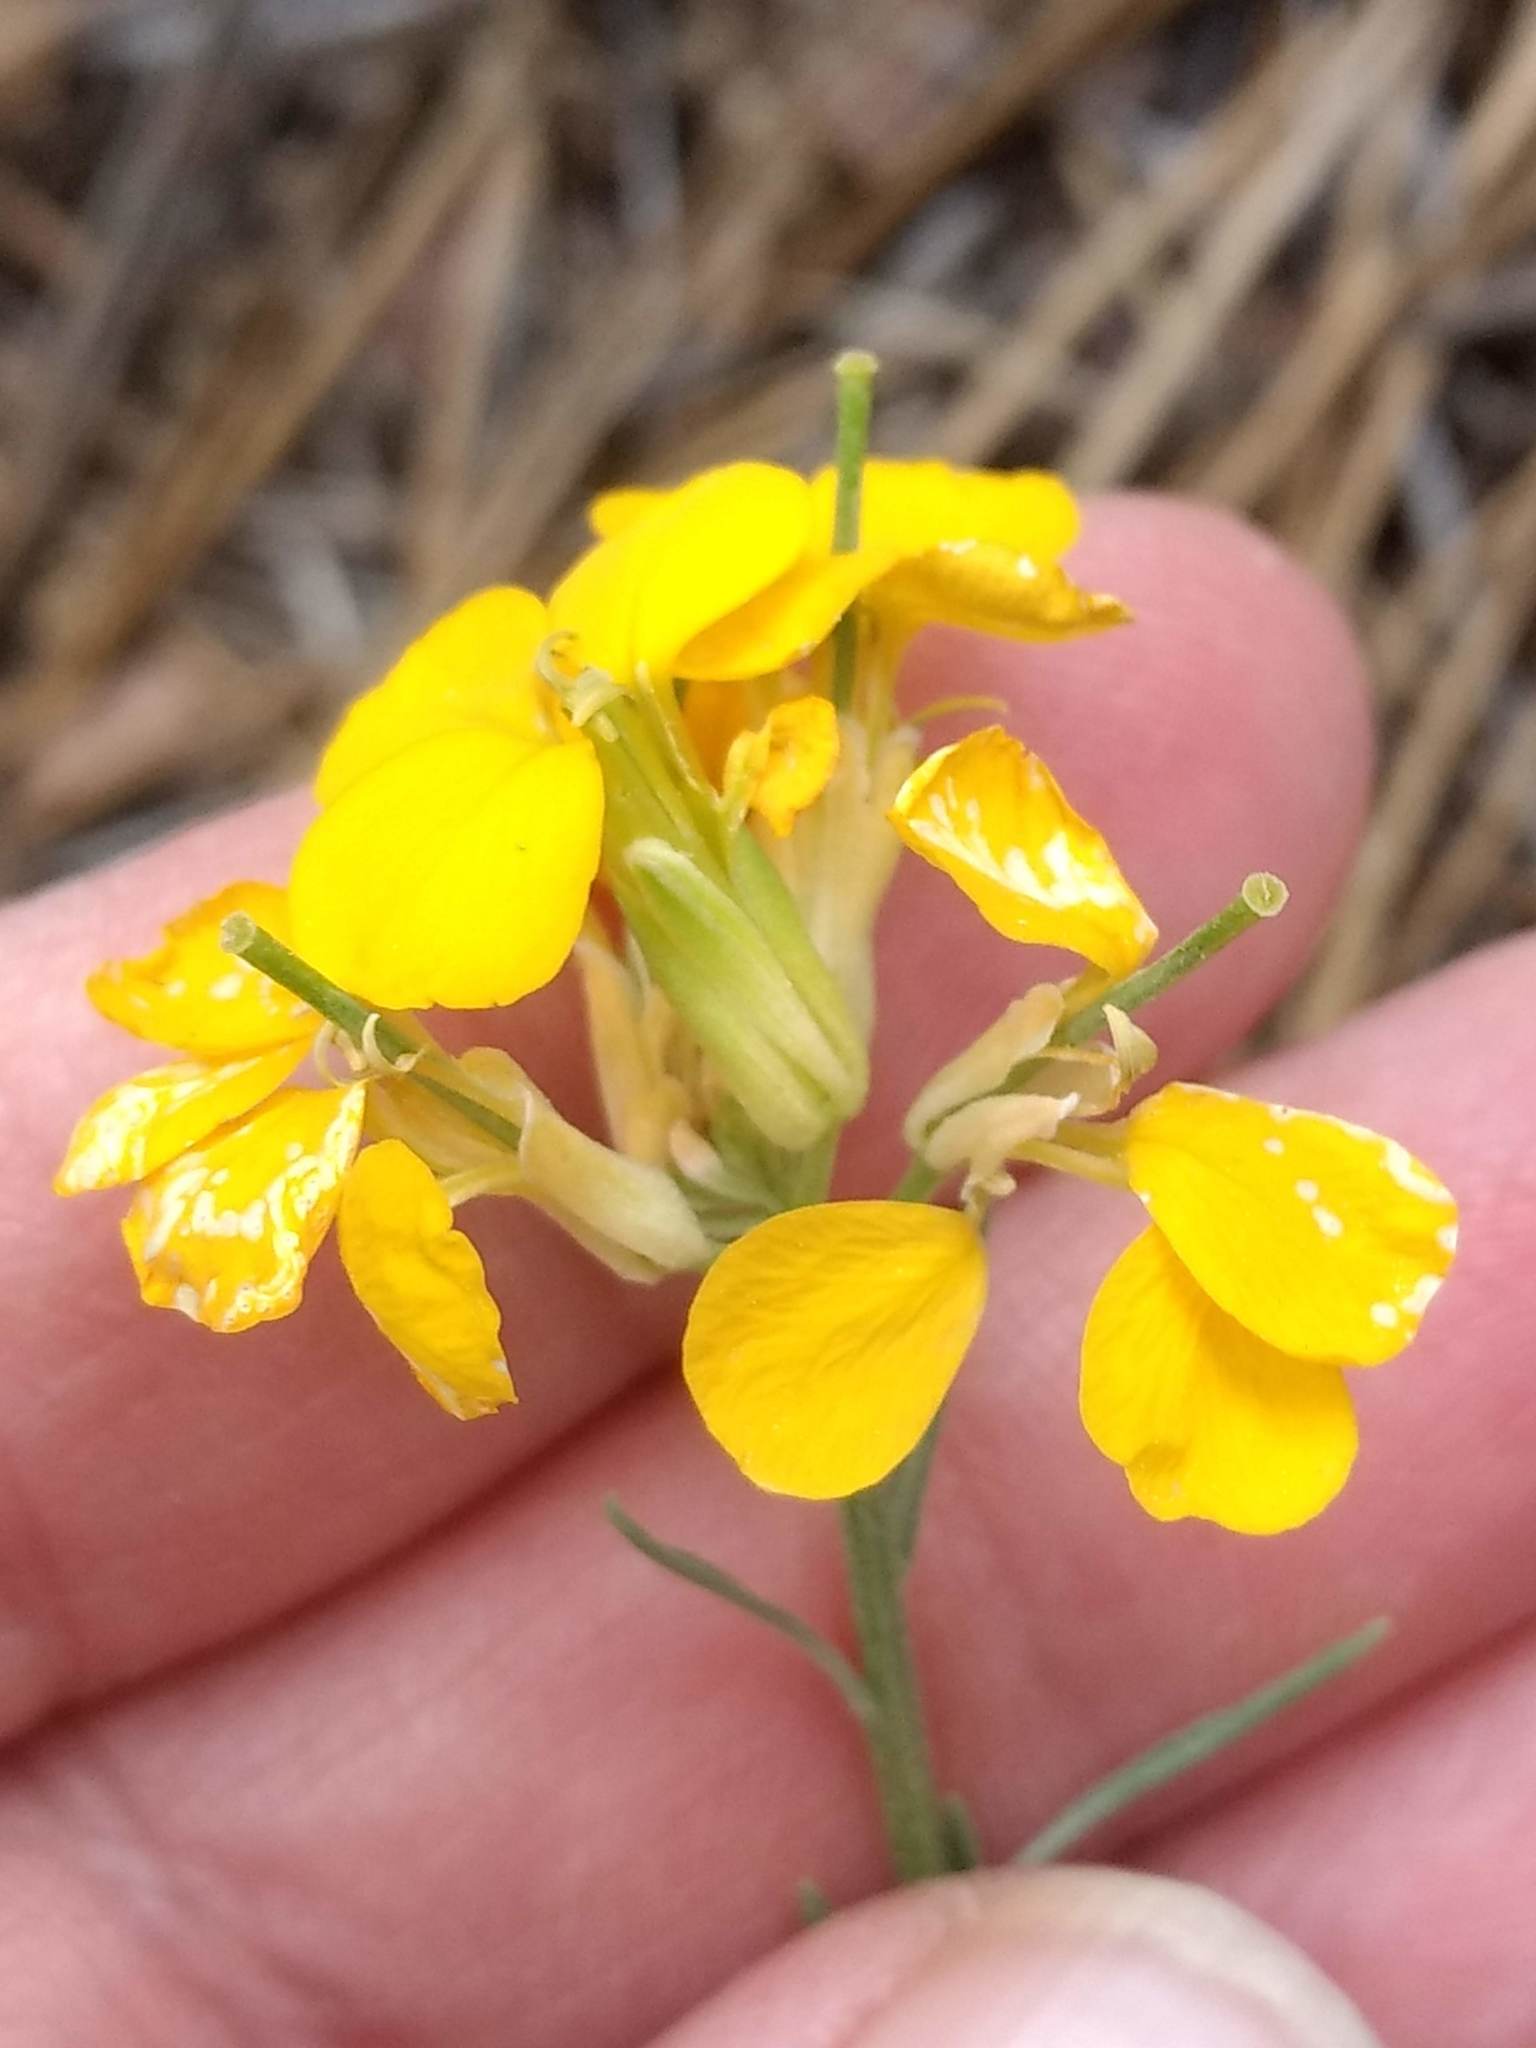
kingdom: Plantae
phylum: Tracheophyta
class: Magnoliopsida
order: Brassicales
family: Brassicaceae
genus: Erysimum
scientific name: Erysimum capitatum
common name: Western wallflower
